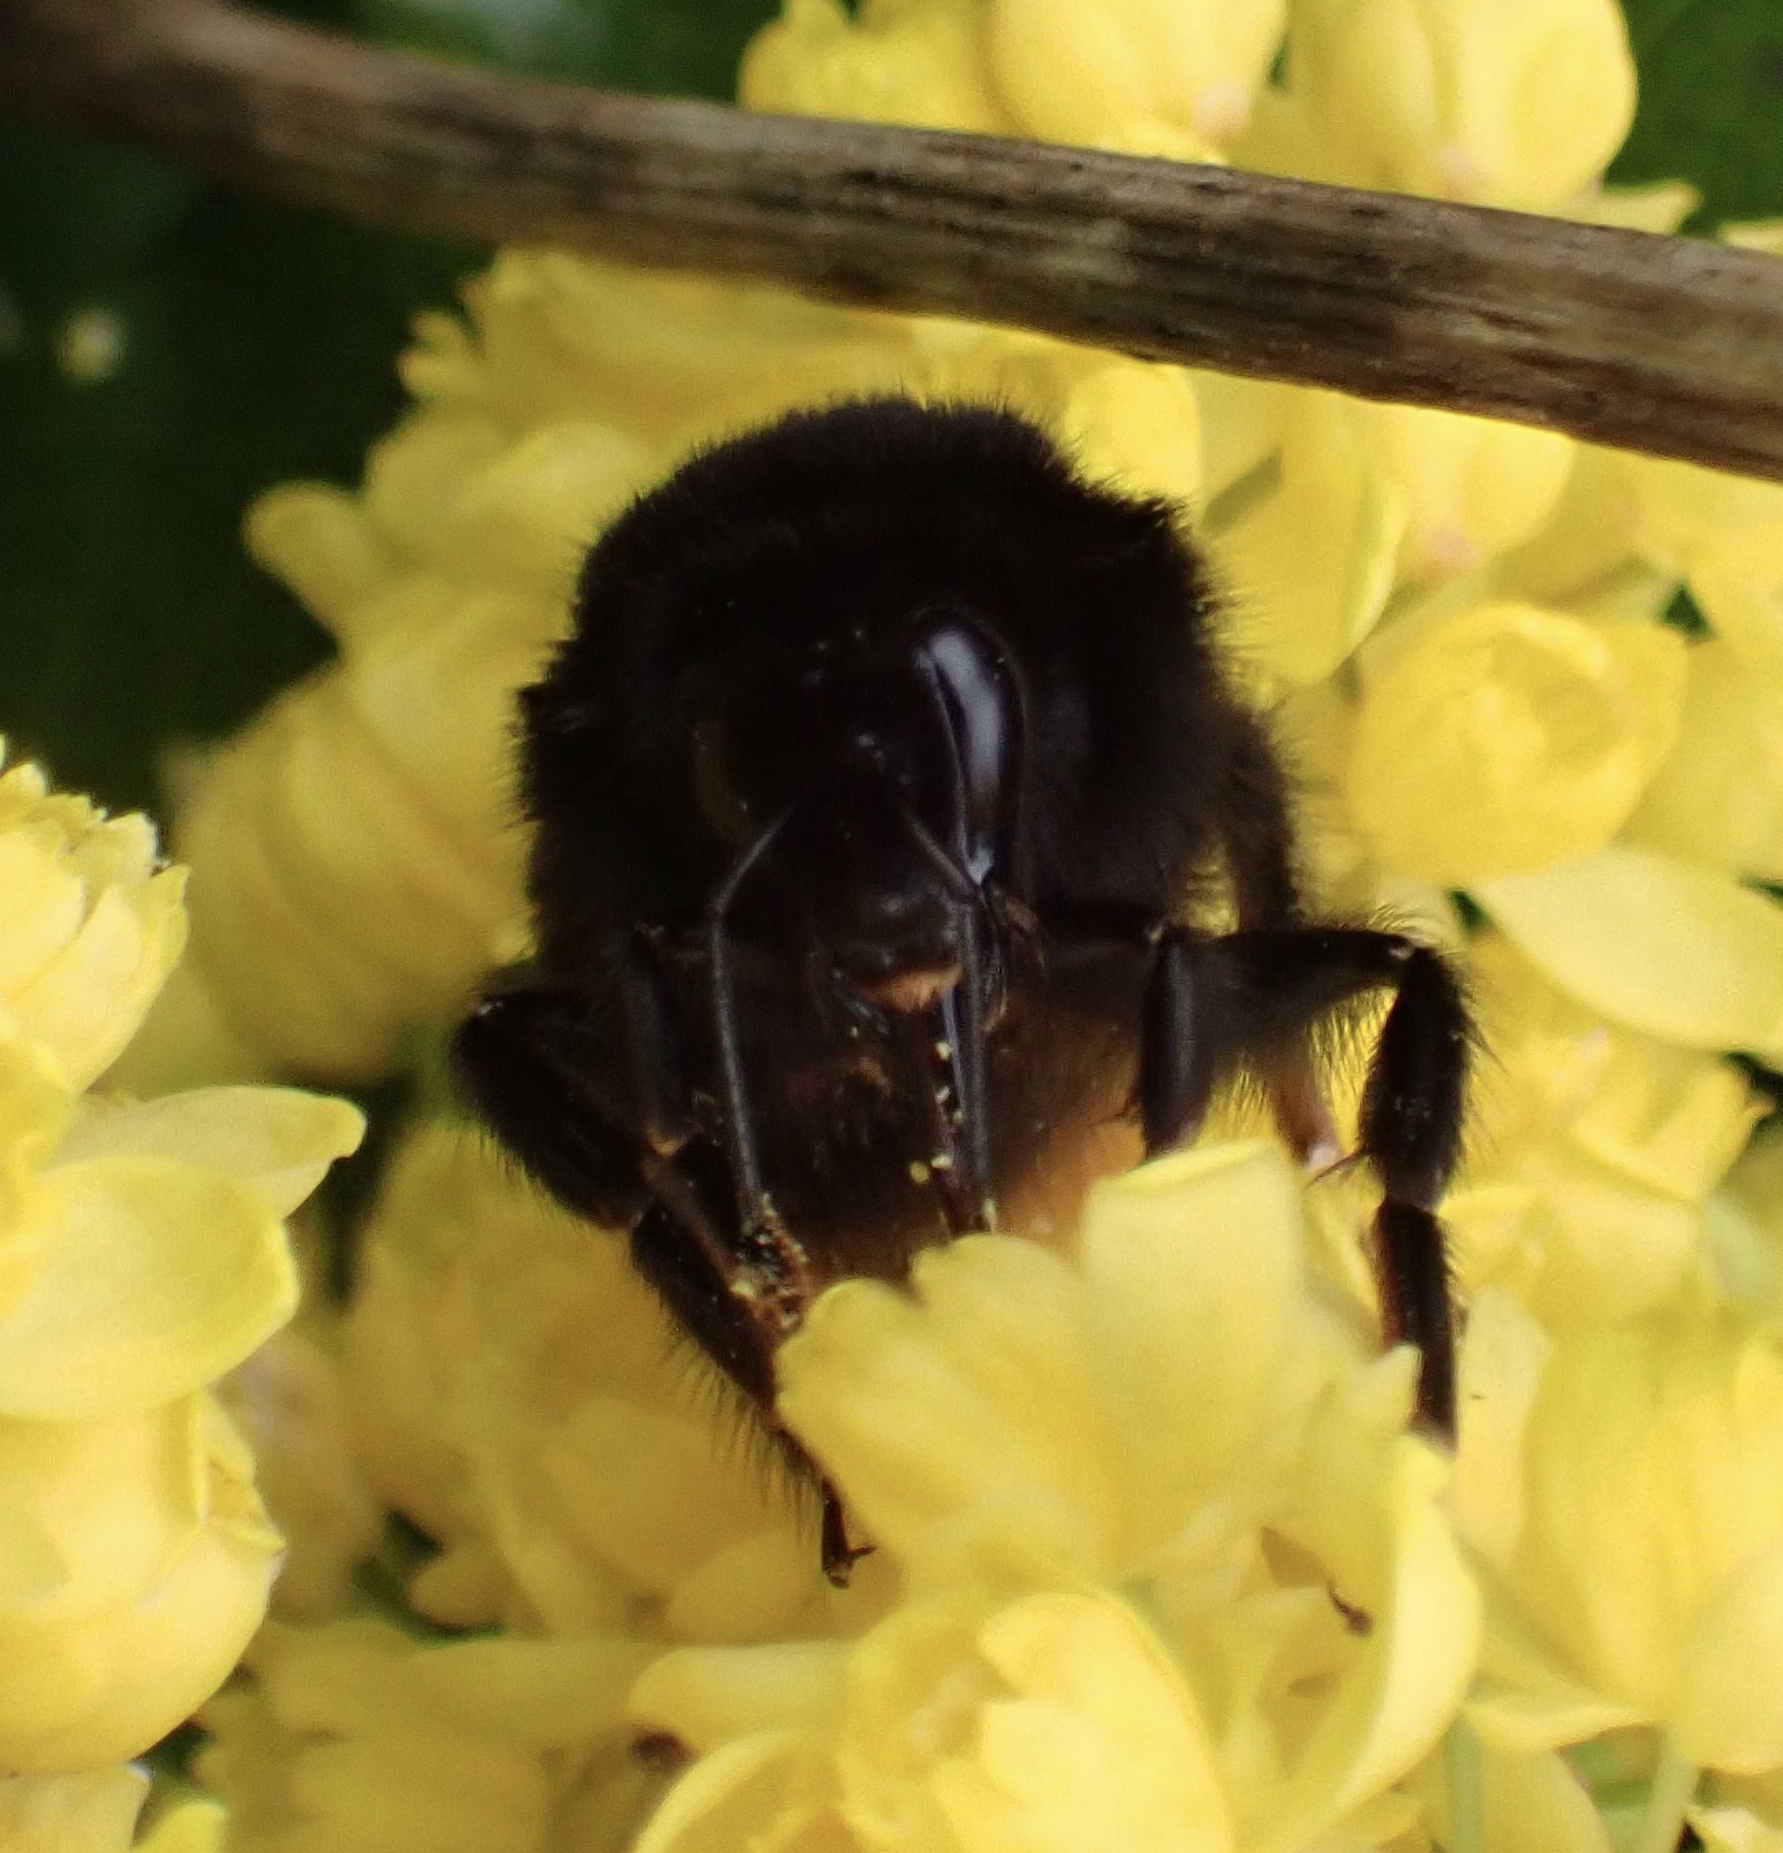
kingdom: Animalia
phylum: Arthropoda
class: Insecta
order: Hymenoptera
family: Apidae
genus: Bombus
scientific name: Bombus lapidarius
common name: Large red-tailed humble-bee
